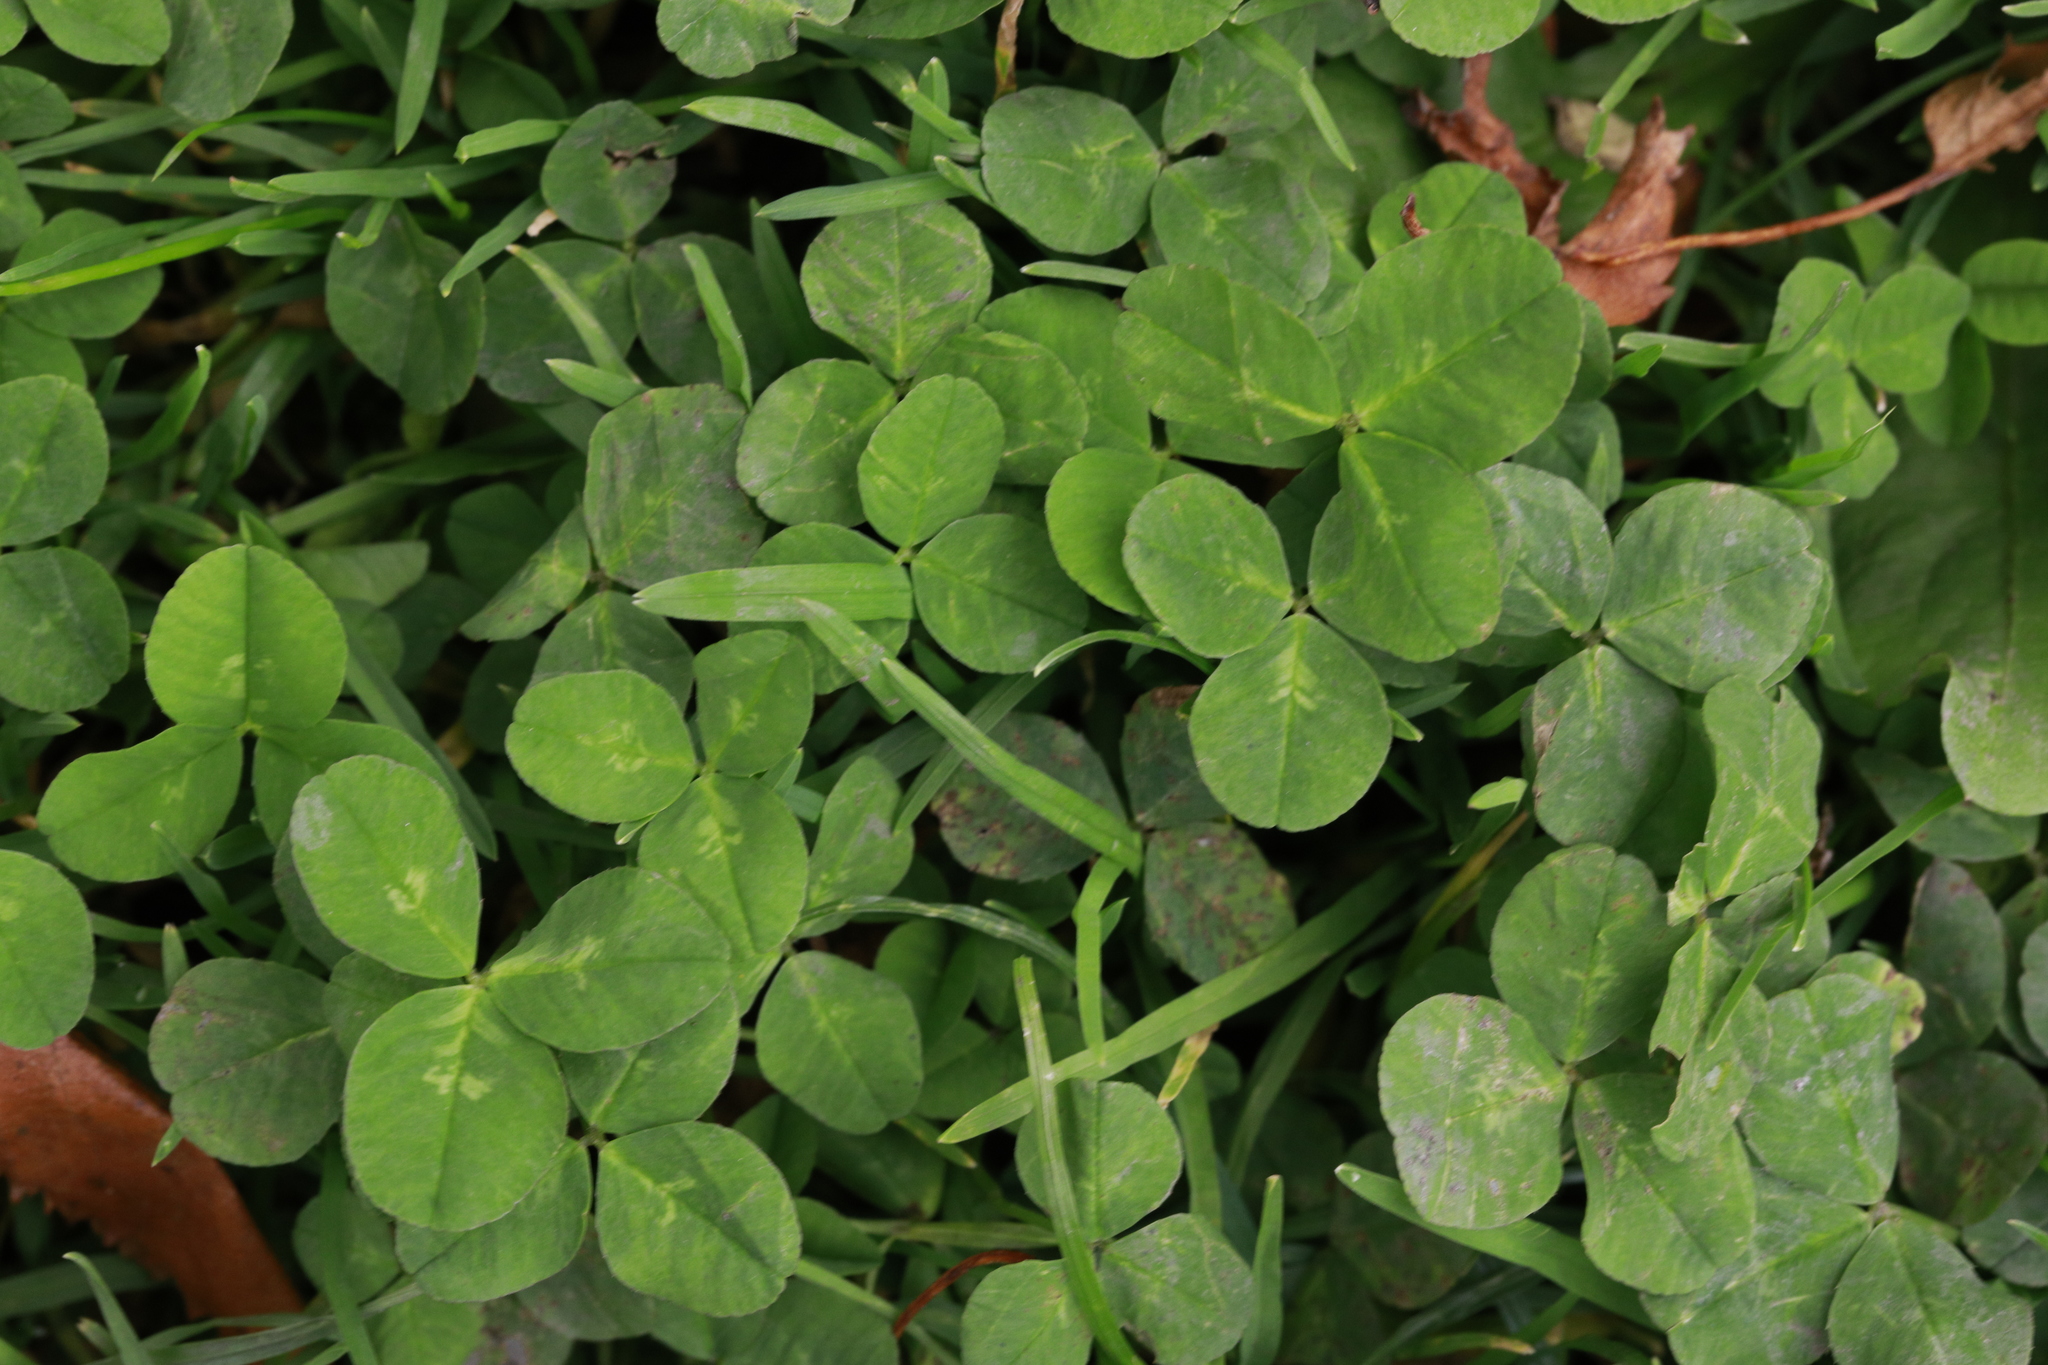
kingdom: Plantae
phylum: Tracheophyta
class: Magnoliopsida
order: Fabales
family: Fabaceae
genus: Trifolium
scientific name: Trifolium repens
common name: White clover
